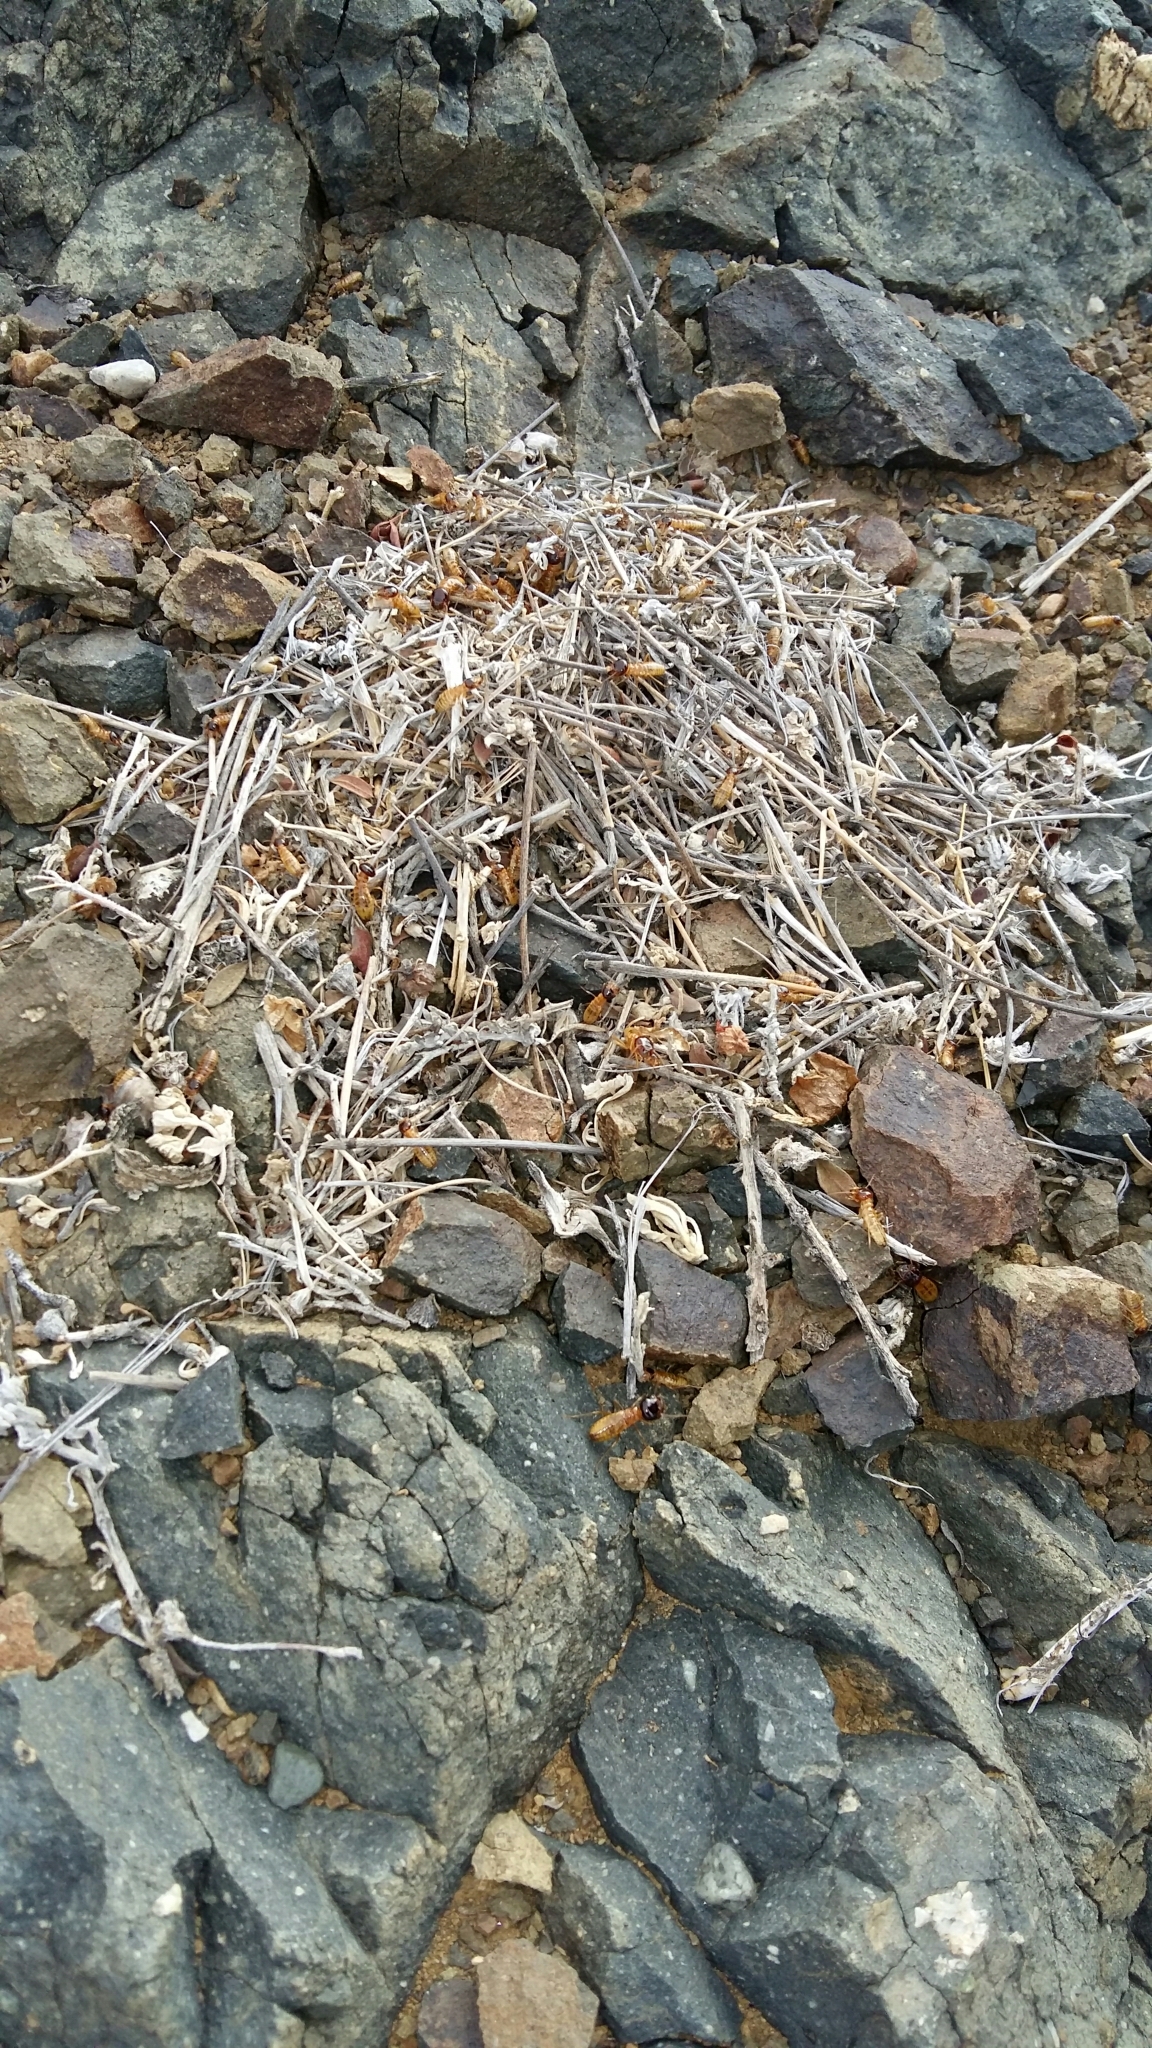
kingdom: Animalia
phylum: Arthropoda
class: Insecta
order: Blattodea
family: Hodotermitidae
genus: Microhodotermes
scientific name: Microhodotermes viator
